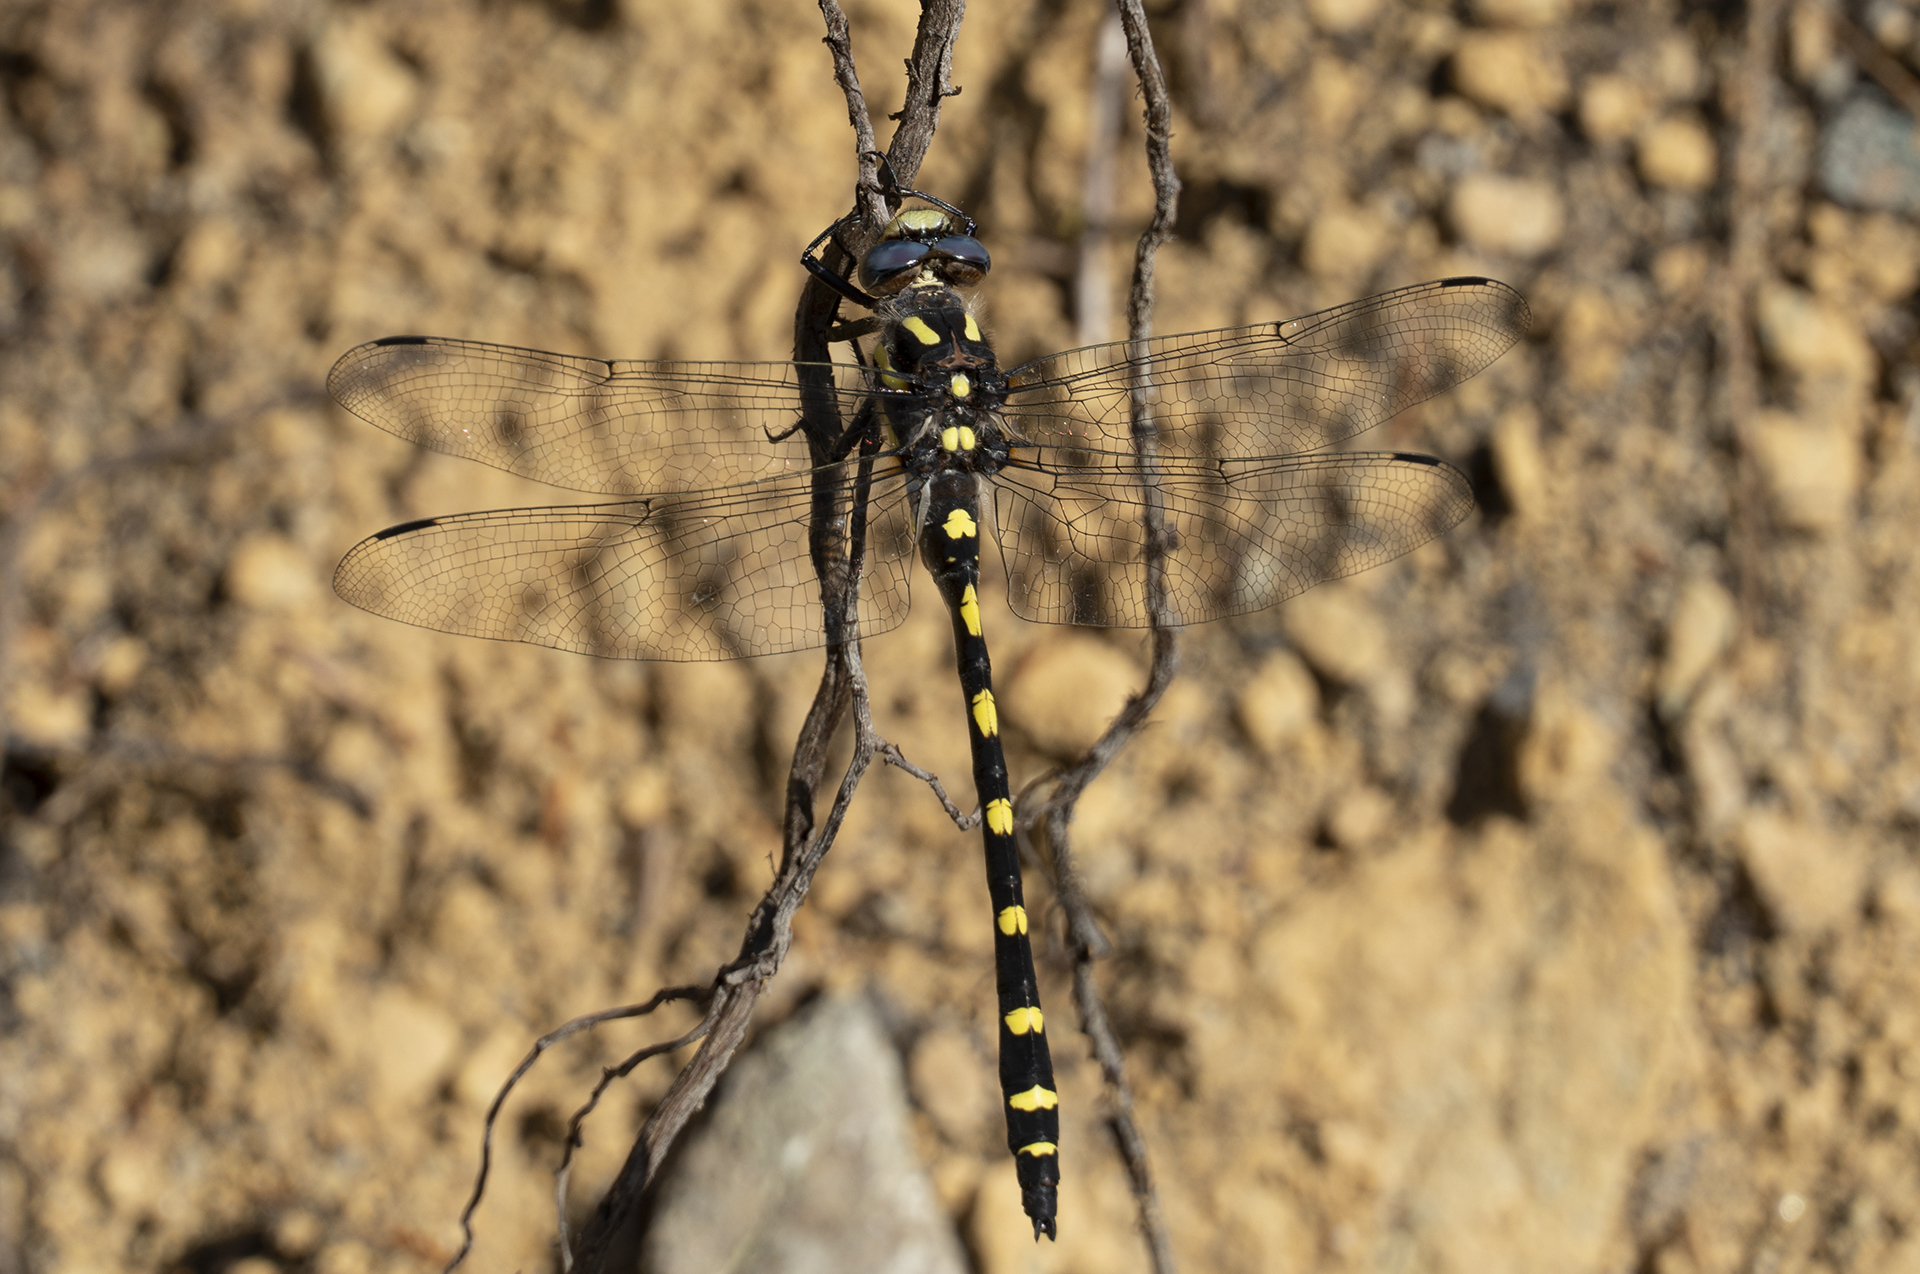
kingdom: Animalia
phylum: Arthropoda
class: Insecta
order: Odonata
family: Cordulegastridae
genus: Cordulegaster
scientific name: Cordulegaster dorsalis
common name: Pacific spiketail
